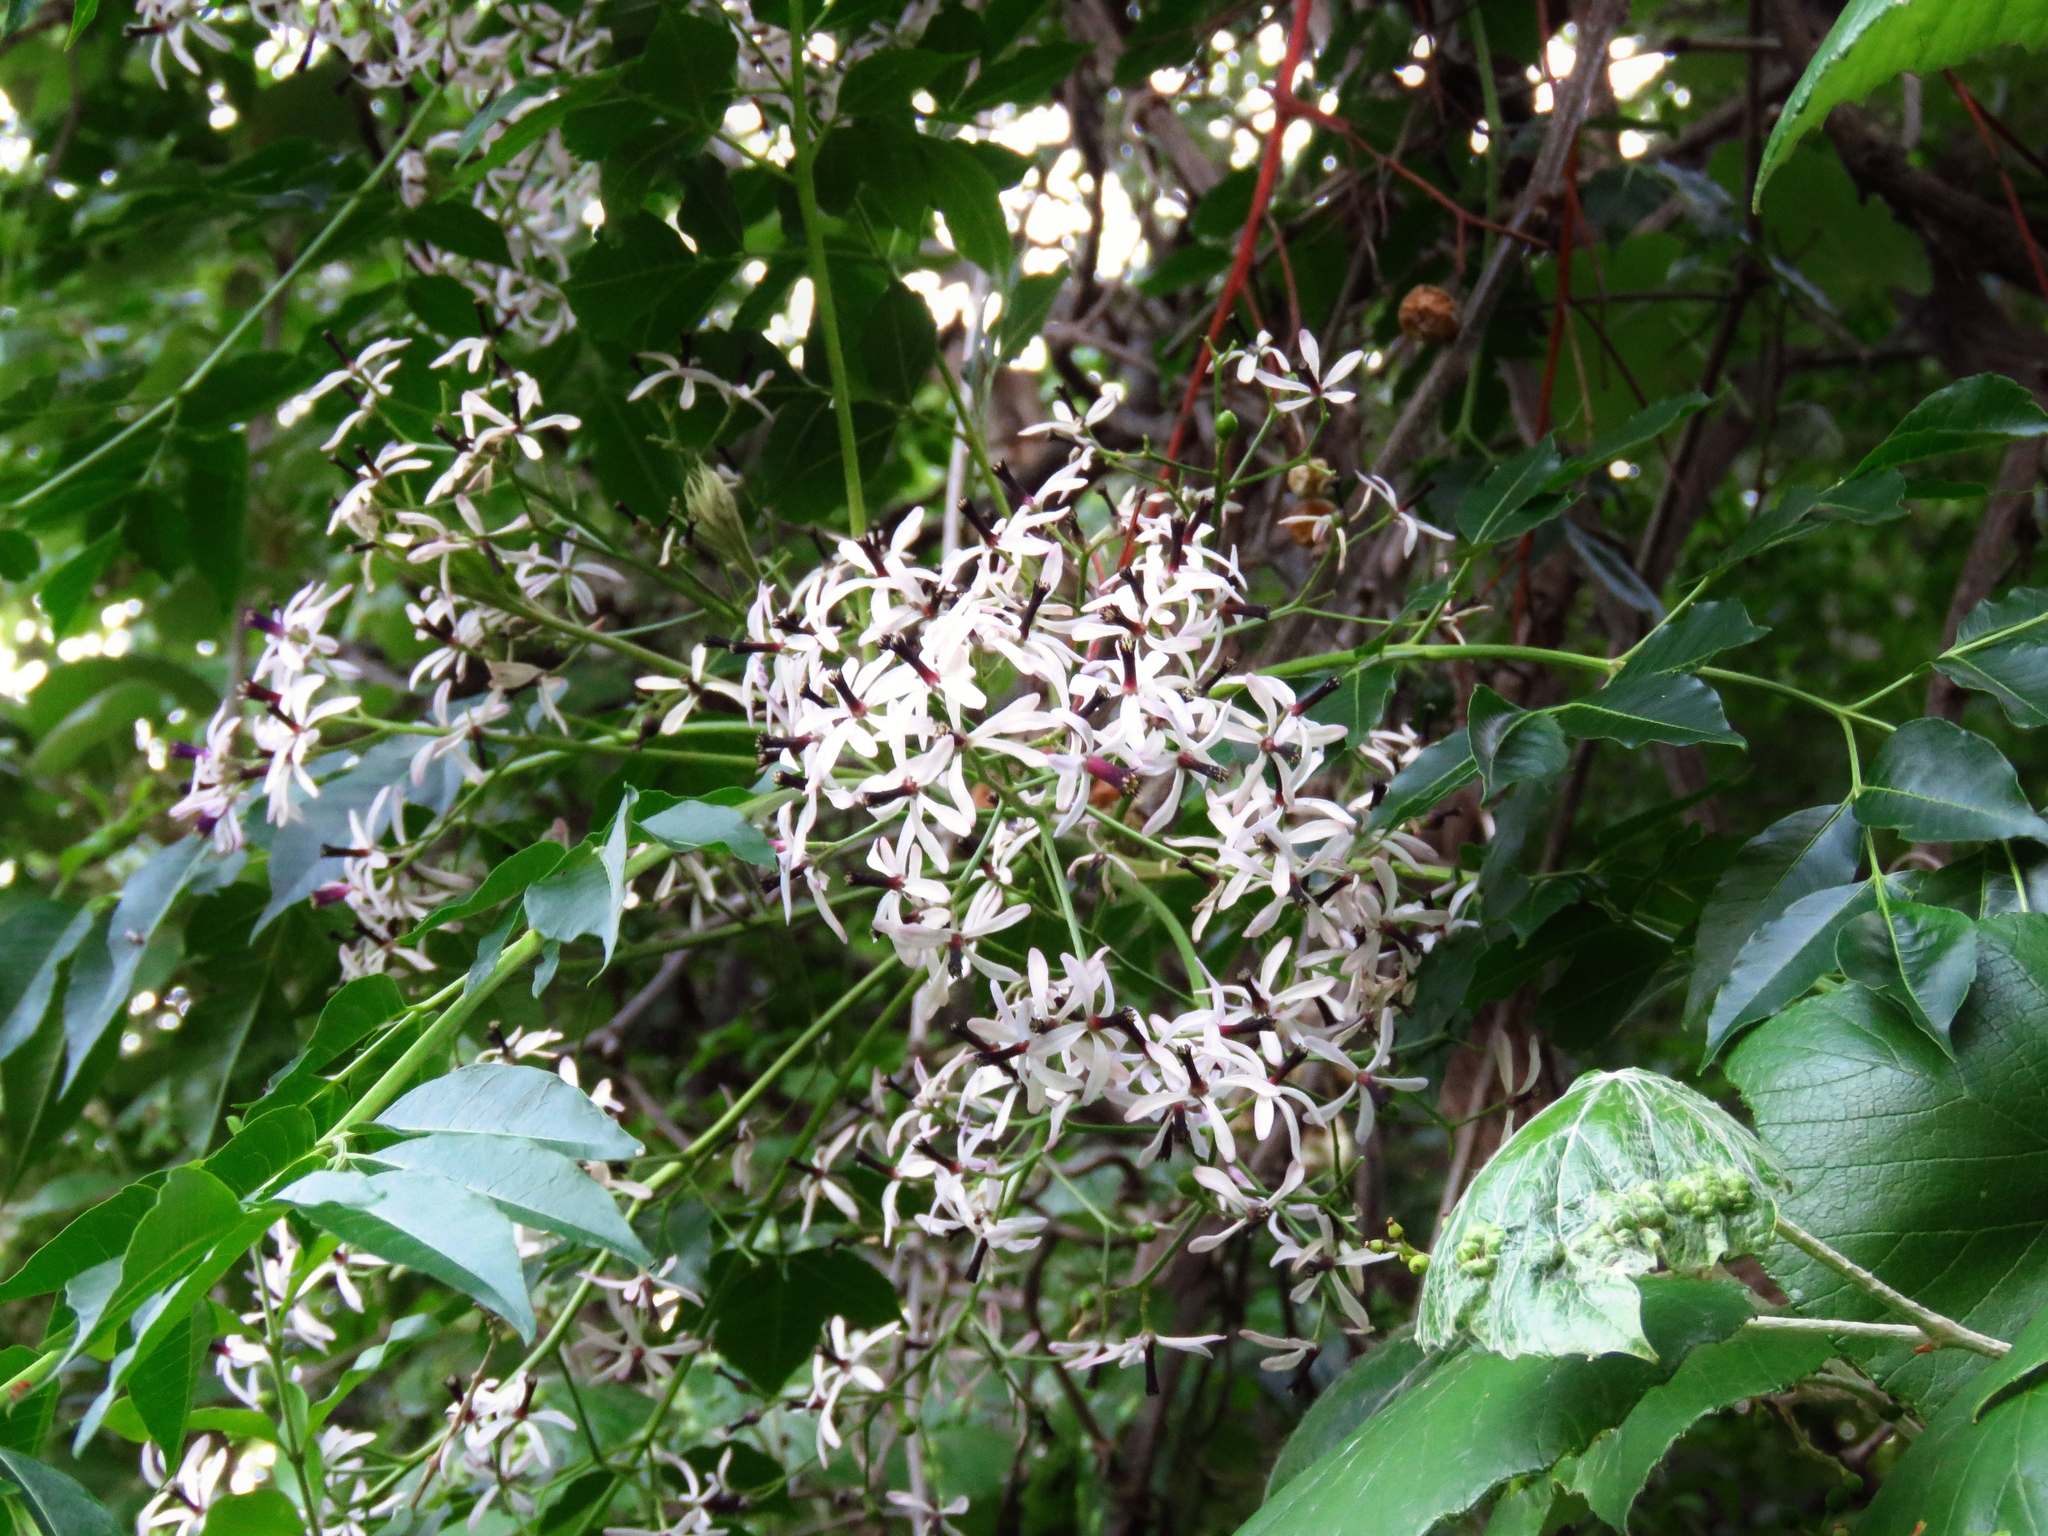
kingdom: Plantae
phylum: Tracheophyta
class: Magnoliopsida
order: Sapindales
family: Meliaceae
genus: Melia
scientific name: Melia azedarach
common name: Chinaberrytree
